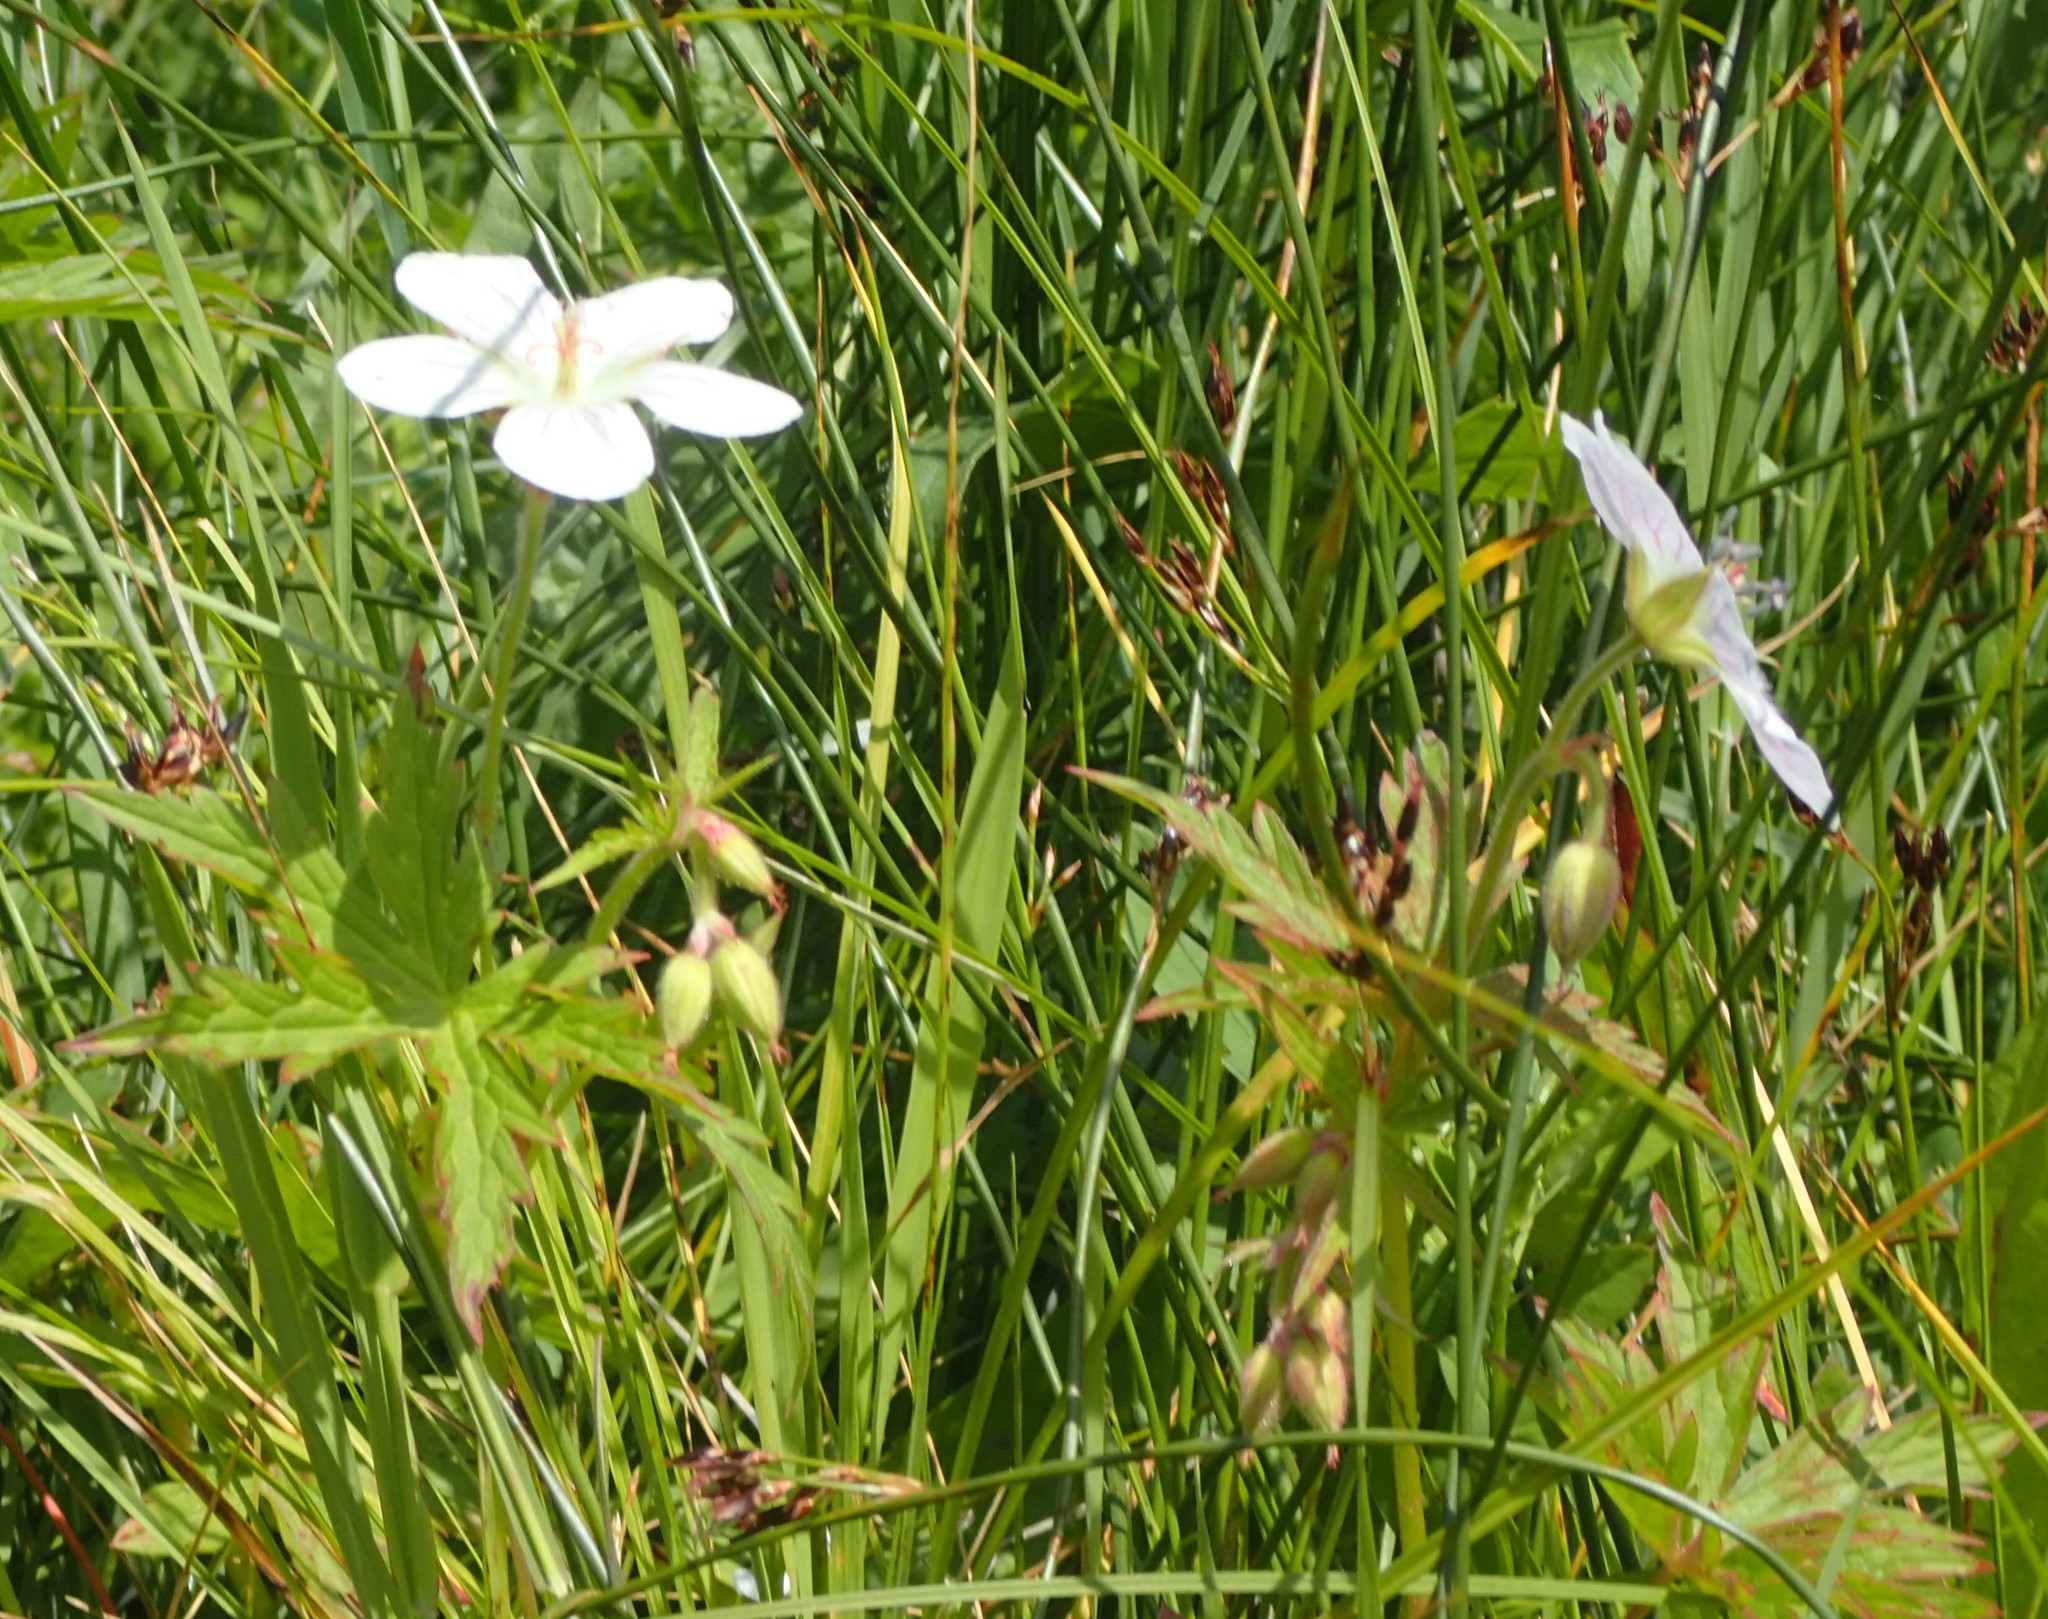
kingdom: Plantae
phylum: Tracheophyta
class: Magnoliopsida
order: Geraniales
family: Geraniaceae
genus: Geranium
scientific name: Geranium richardsonii
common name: Richardson's crane's-bill
